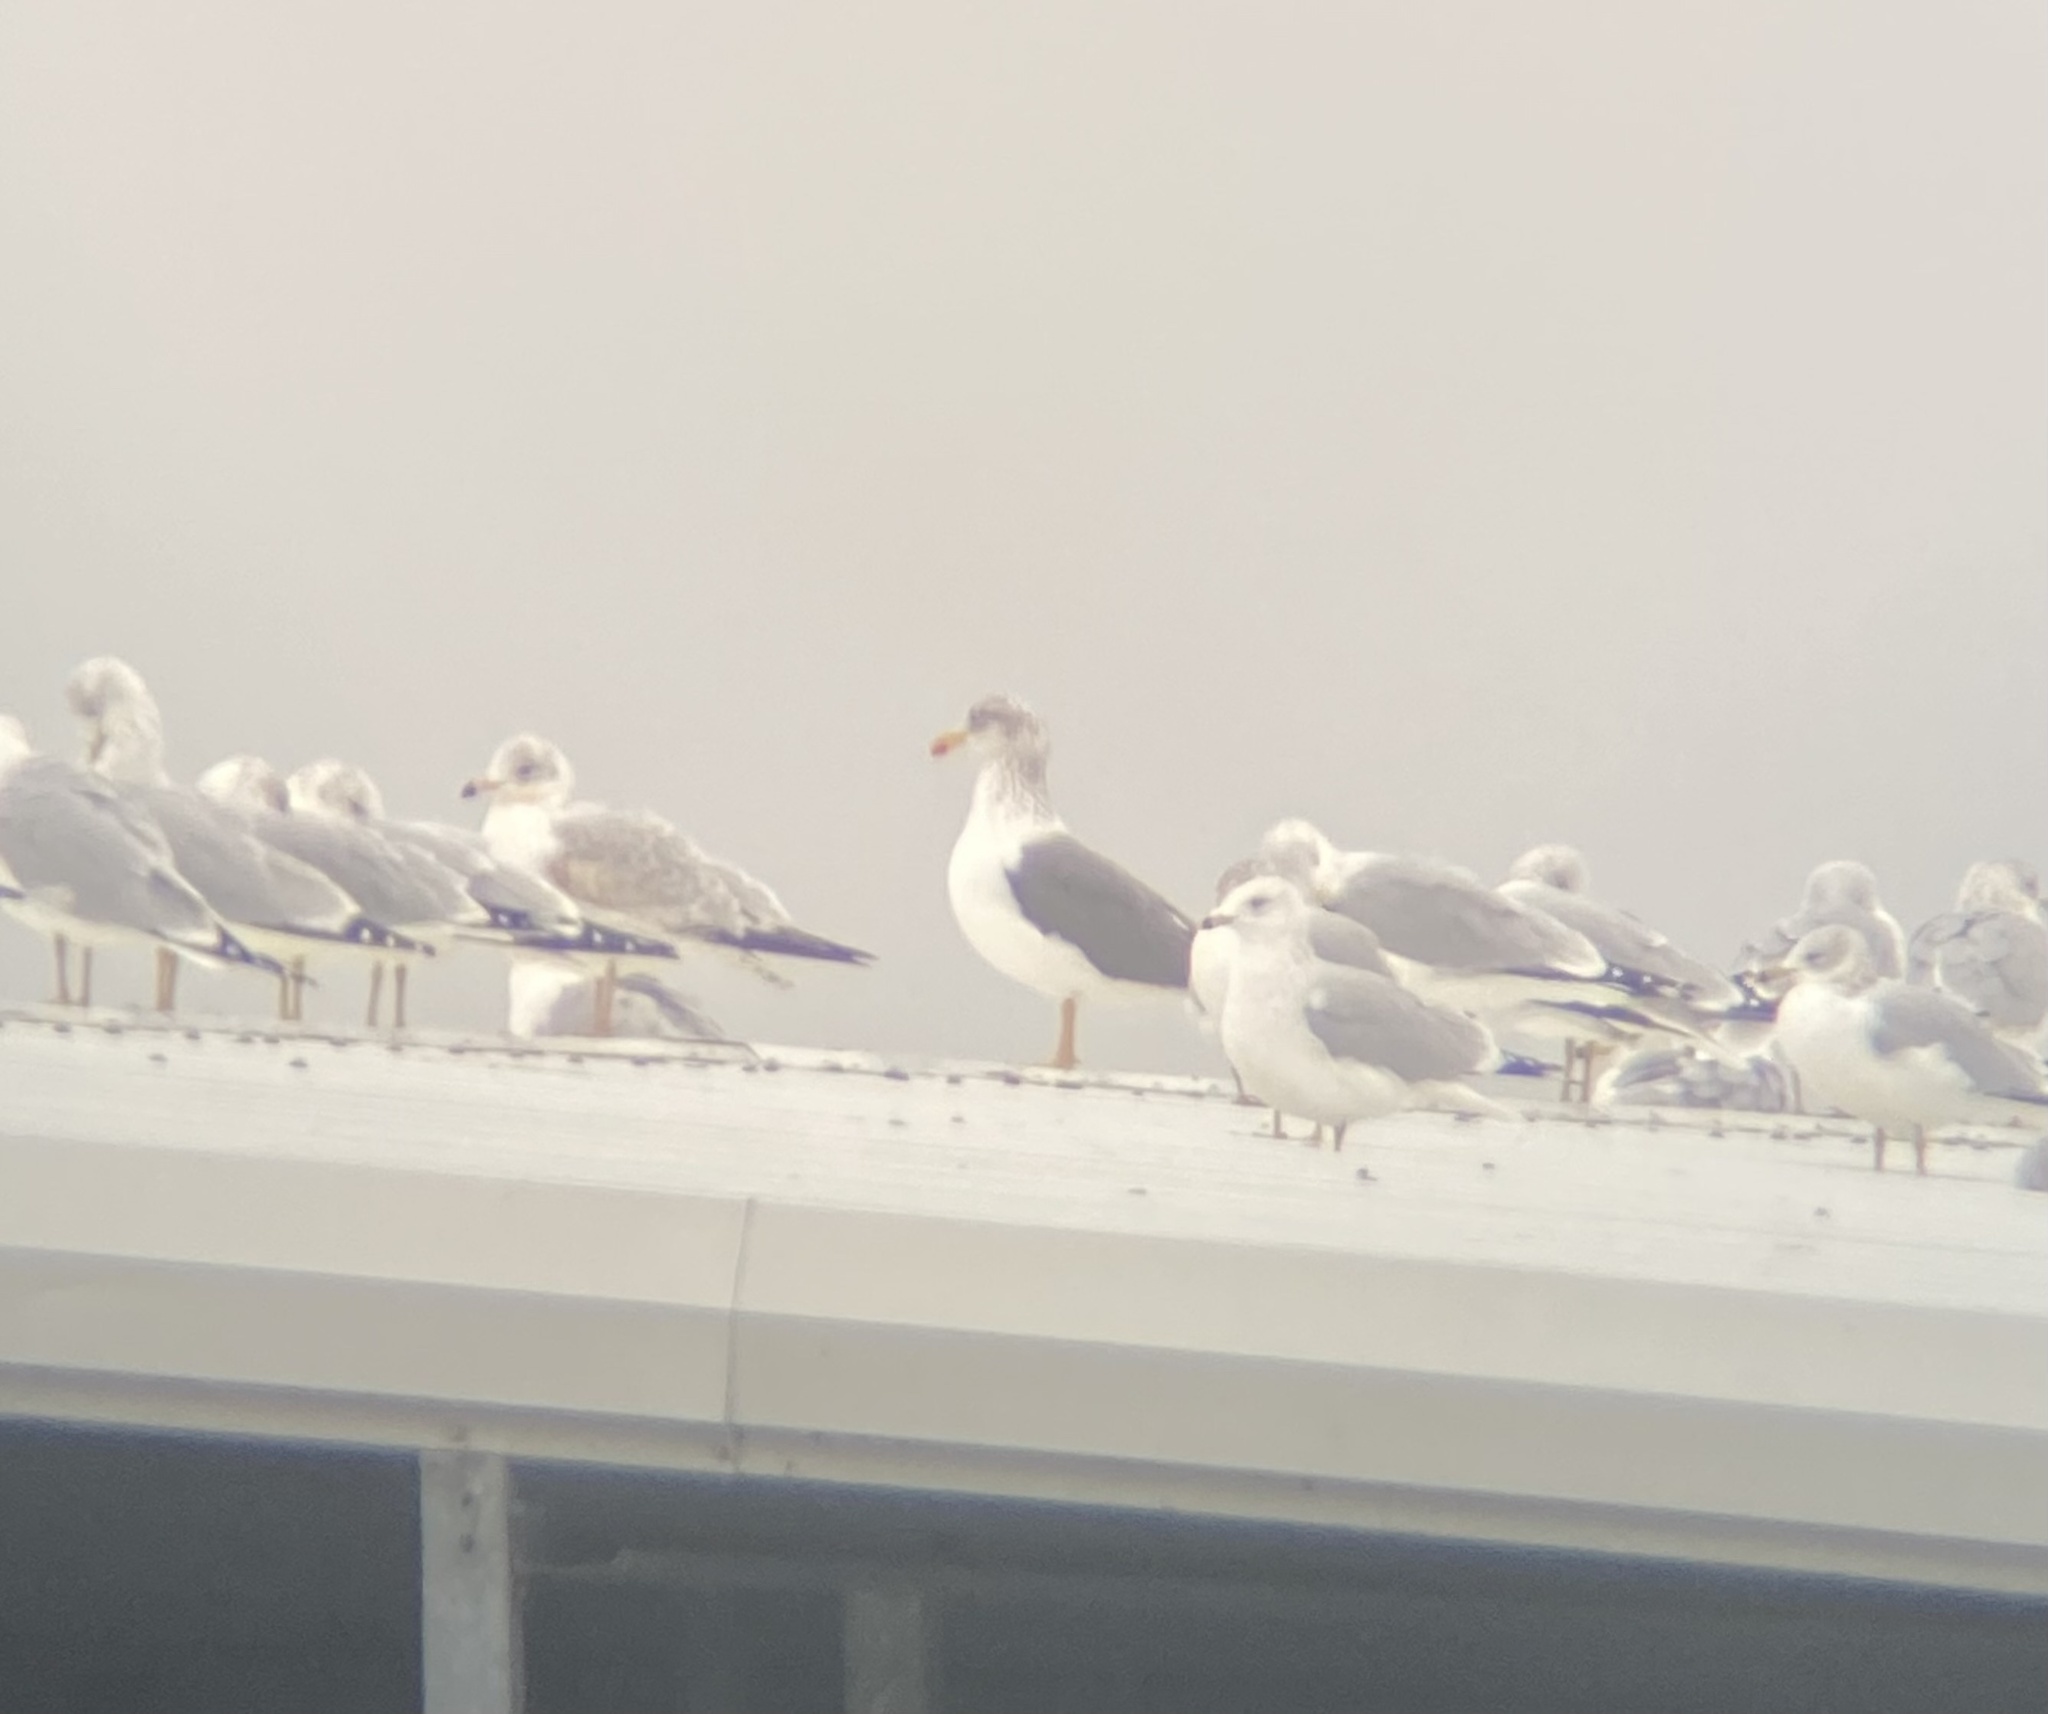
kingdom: Animalia
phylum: Chordata
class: Aves
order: Charadriiformes
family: Laridae
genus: Larus
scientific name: Larus fuscus
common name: Lesser black-backed gull
